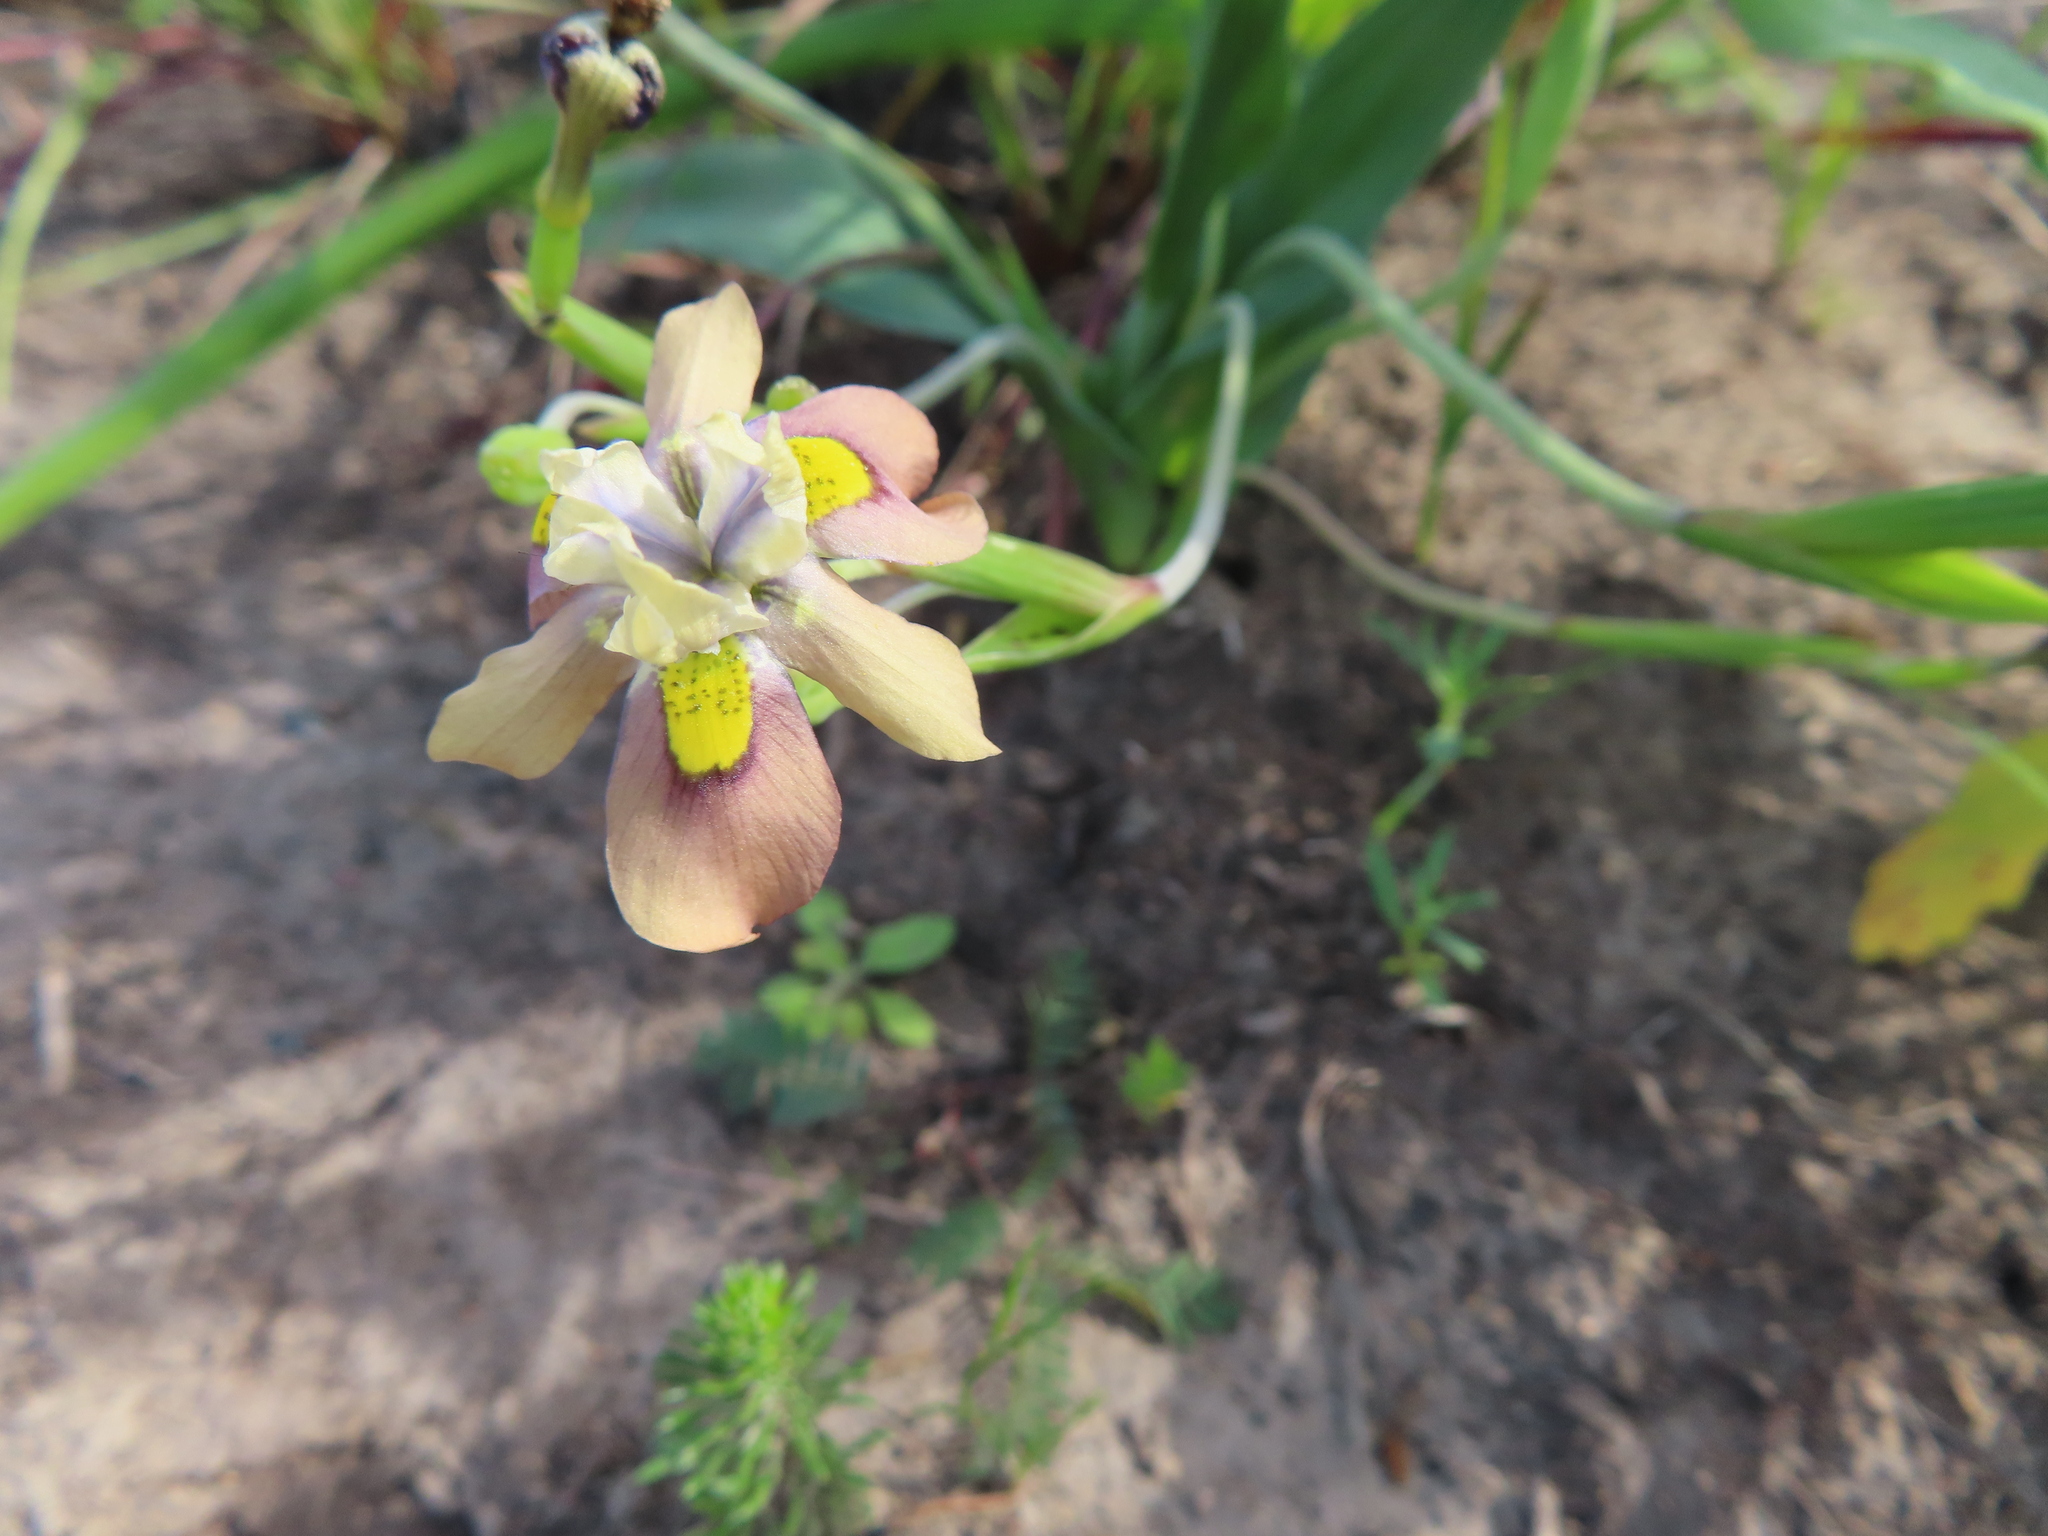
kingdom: Plantae
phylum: Tracheophyta
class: Liliopsida
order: Asparagales
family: Iridaceae
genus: Moraea
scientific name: Moraea vegeta
